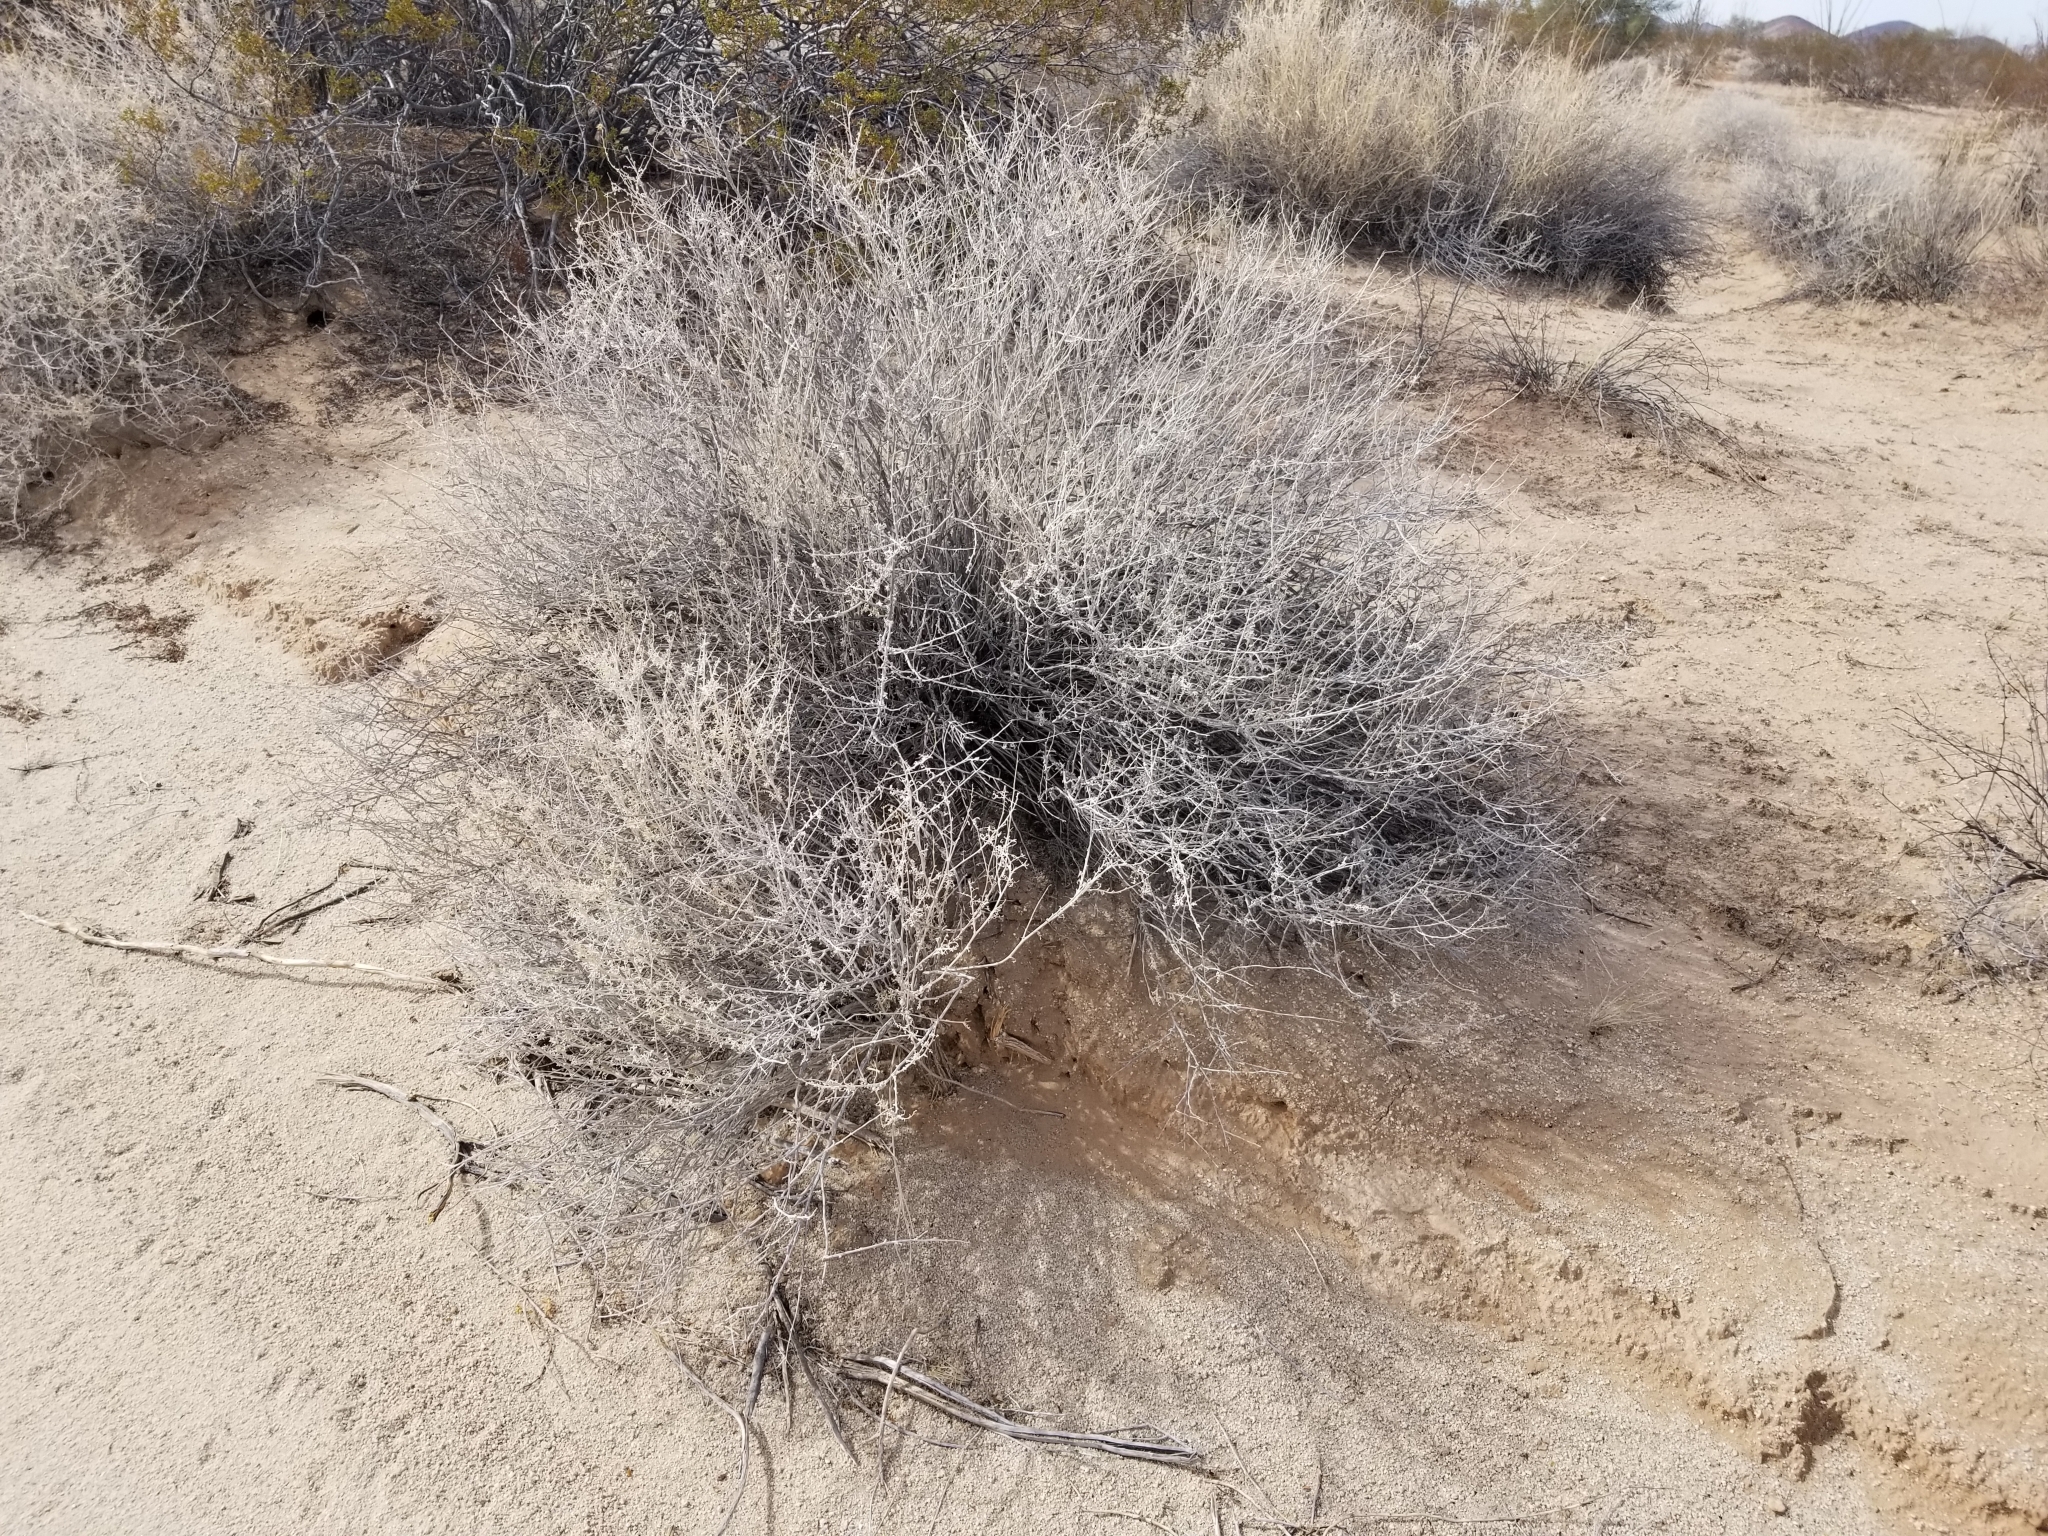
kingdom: Plantae
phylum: Tracheophyta
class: Magnoliopsida
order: Asterales
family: Asteraceae
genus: Ambrosia
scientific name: Ambrosia dumosa
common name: Bur-sage
